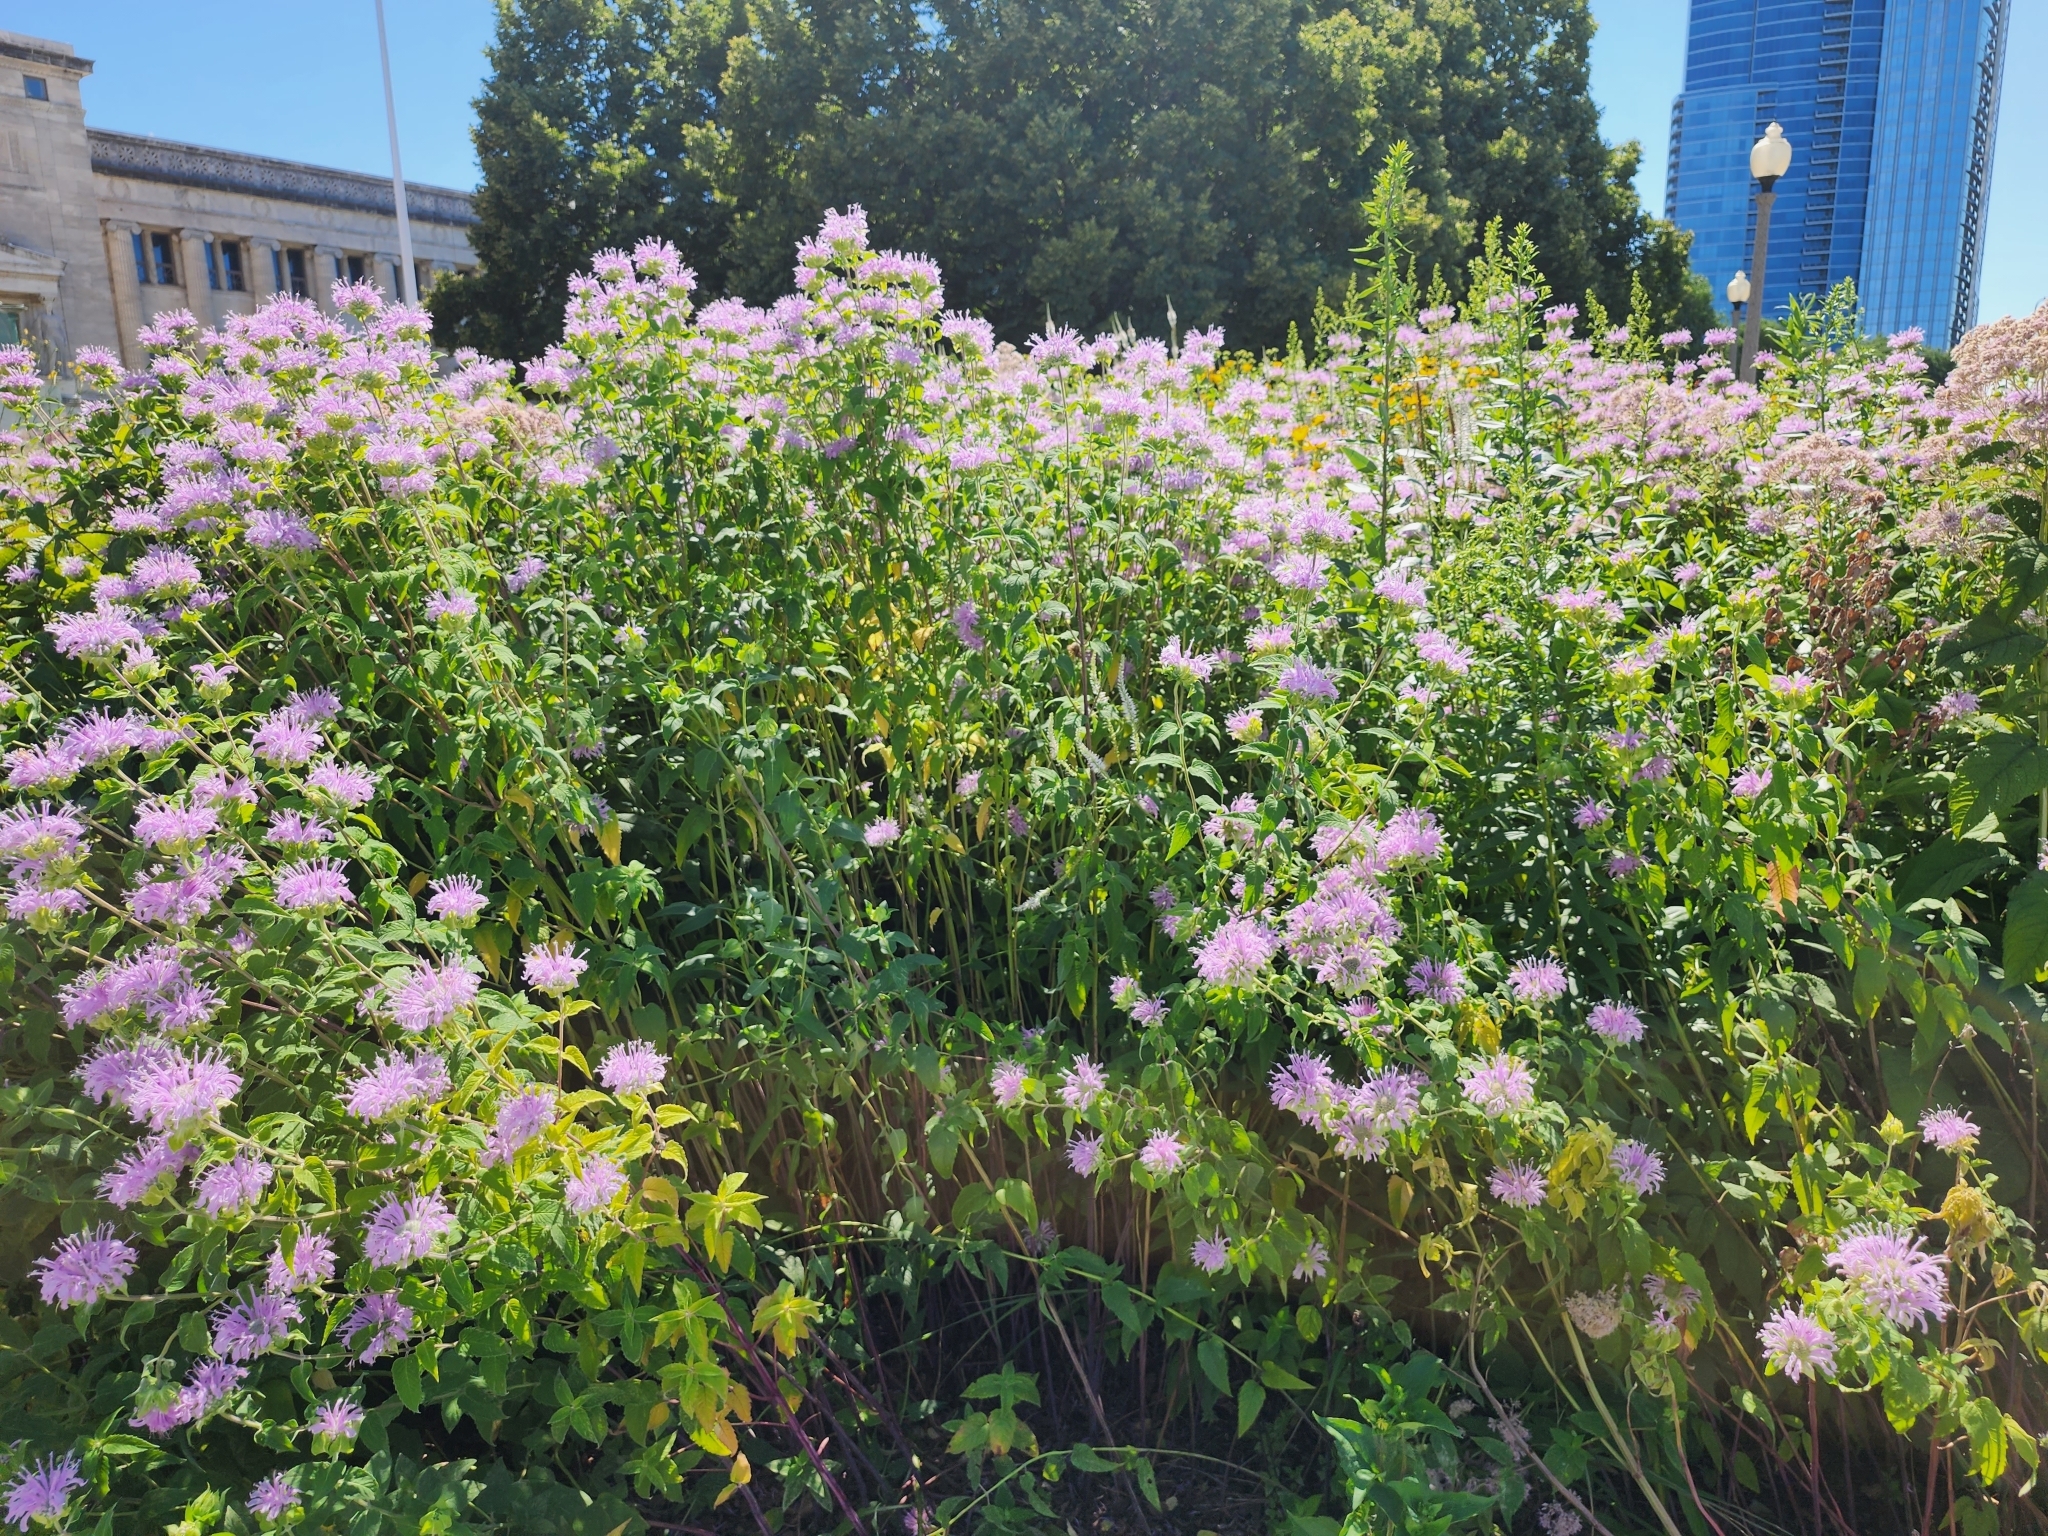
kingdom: Plantae
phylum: Tracheophyta
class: Magnoliopsida
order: Lamiales
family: Lamiaceae
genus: Monarda
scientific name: Monarda fistulosa
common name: Purple beebalm
